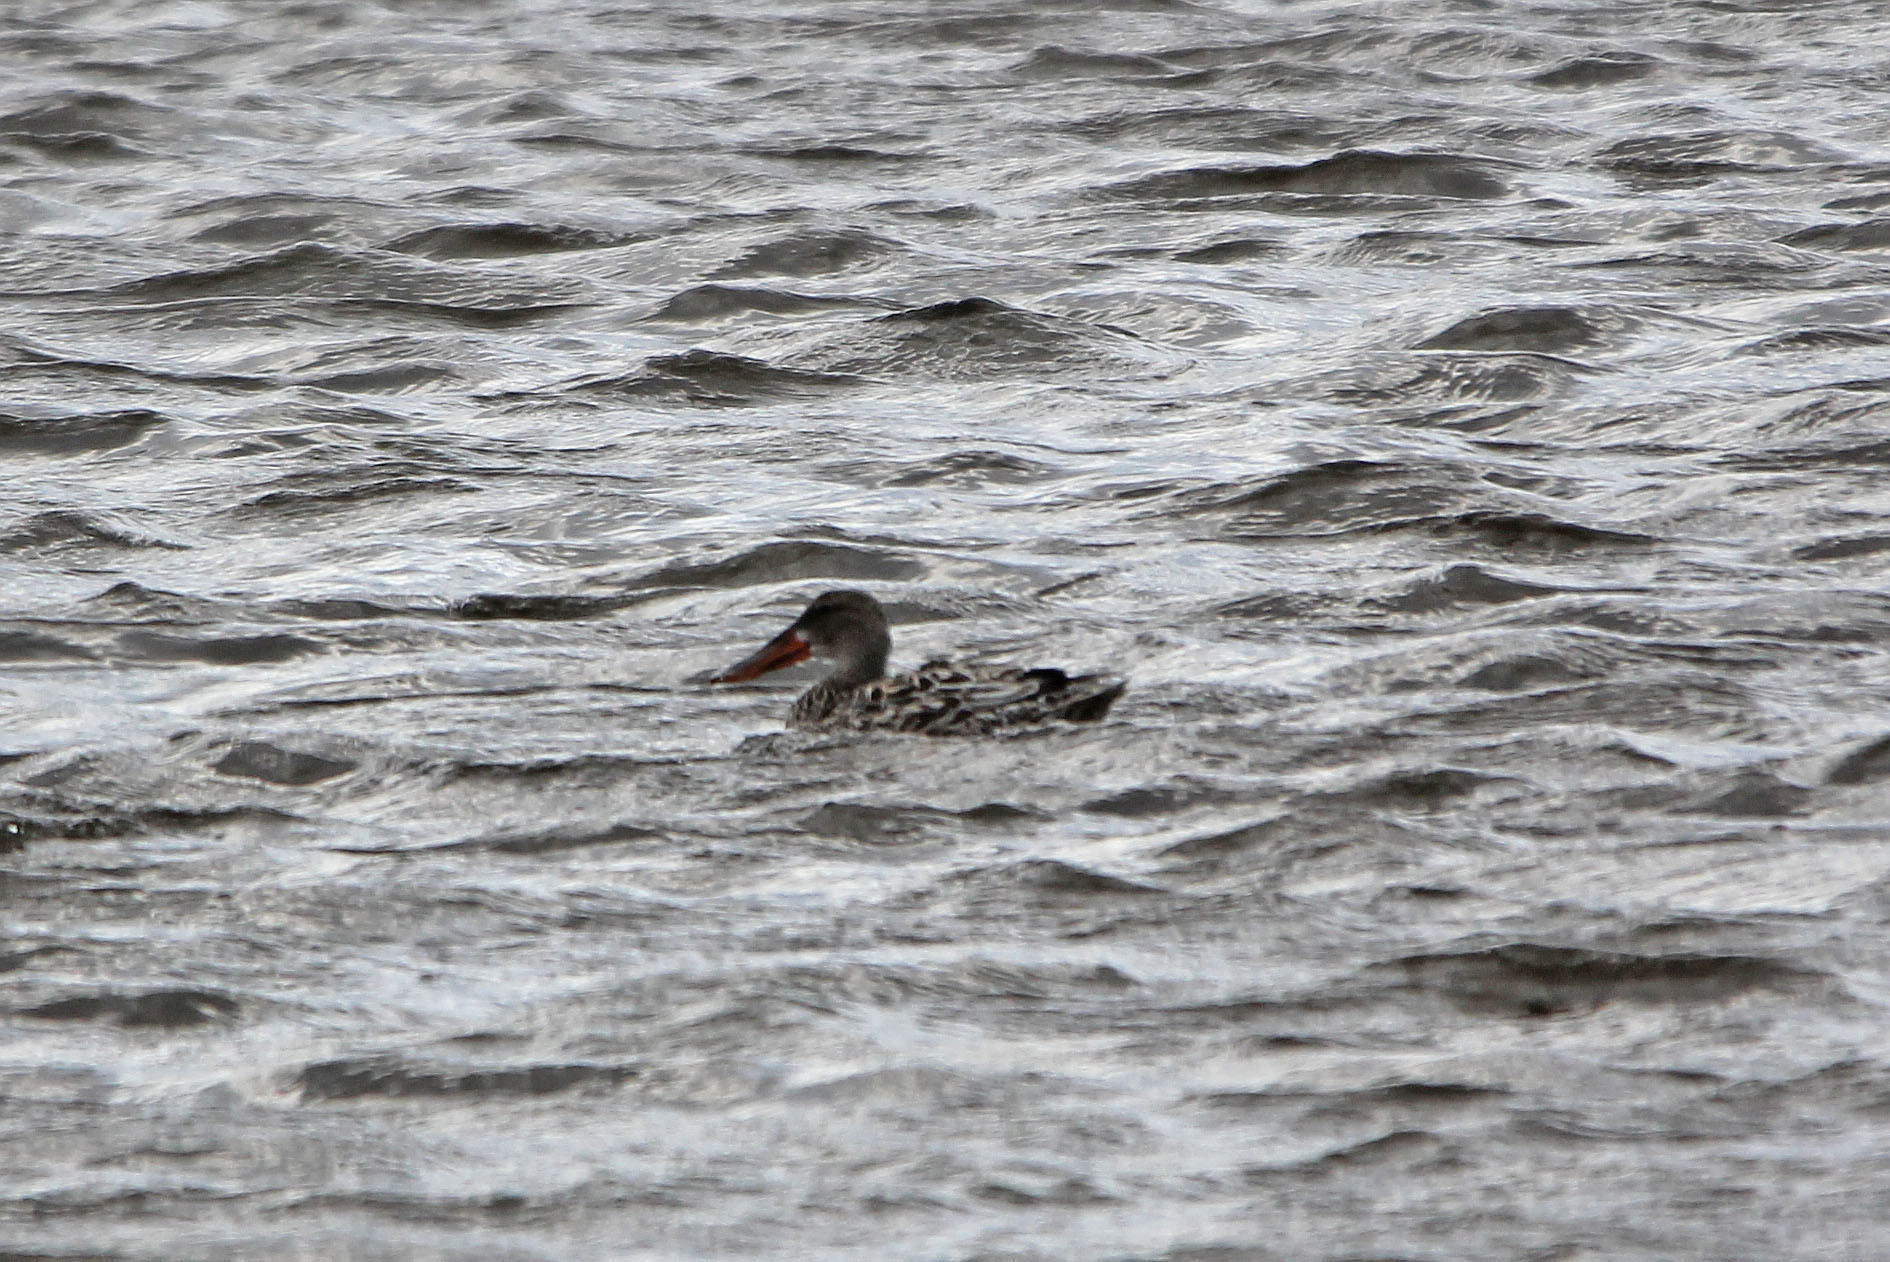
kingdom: Animalia
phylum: Chordata
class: Aves
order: Anseriformes
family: Anatidae
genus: Spatula
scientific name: Spatula clypeata
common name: Northern shoveler
